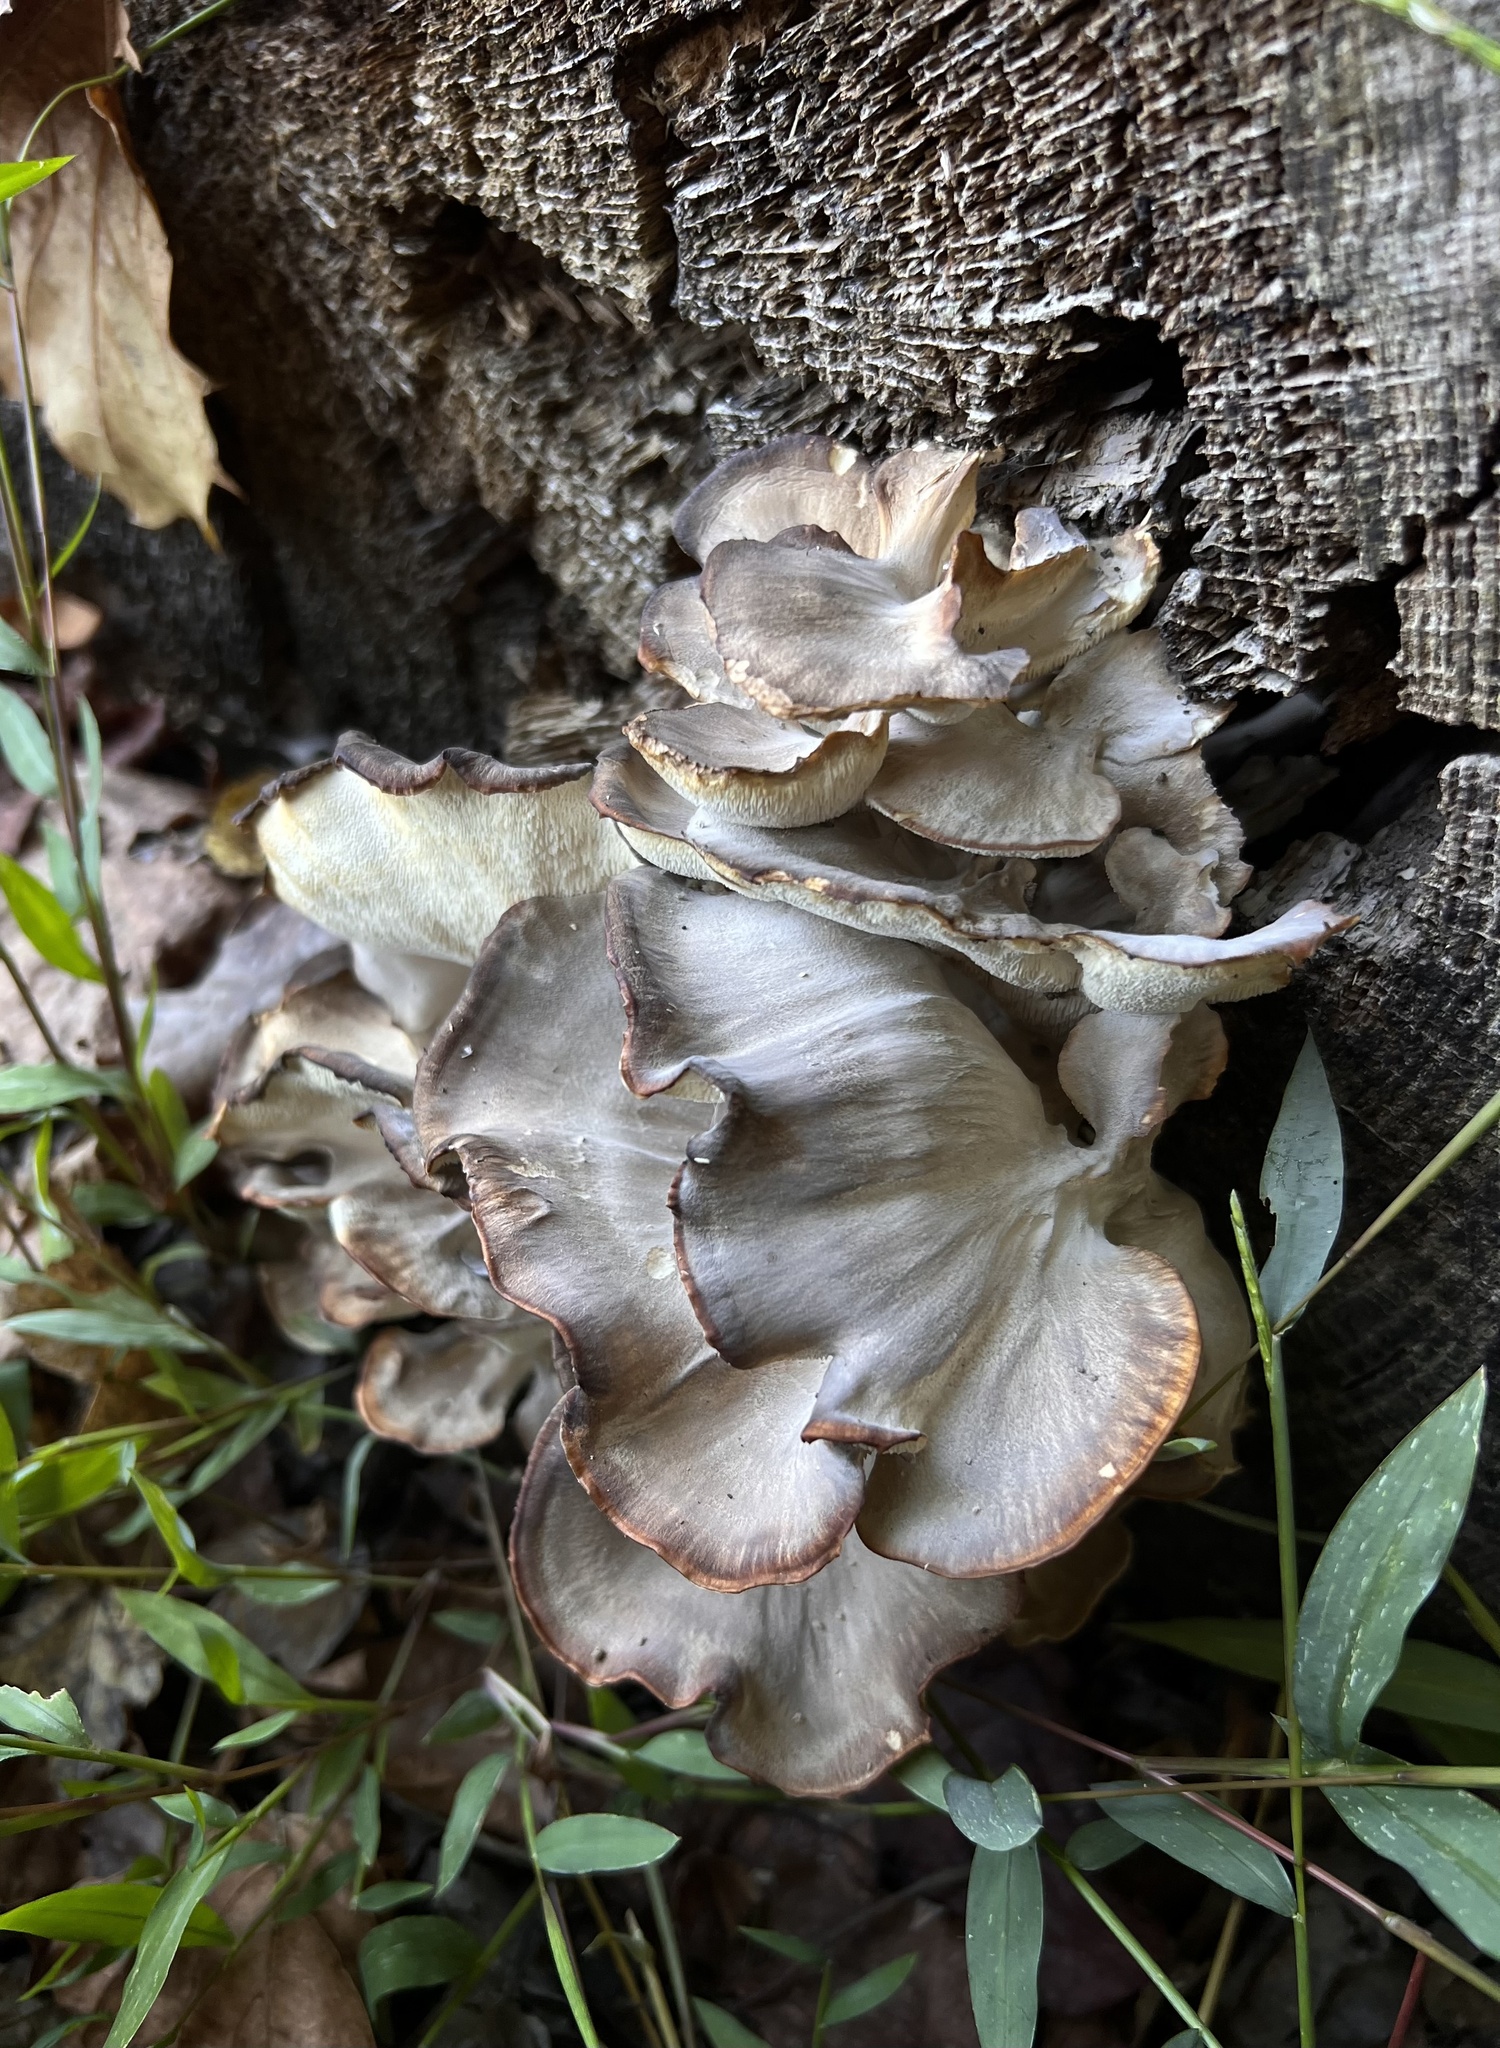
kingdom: Fungi
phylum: Basidiomycota
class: Agaricomycetes
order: Polyporales
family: Grifolaceae
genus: Grifola
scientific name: Grifola frondosa
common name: Hen of the woods
